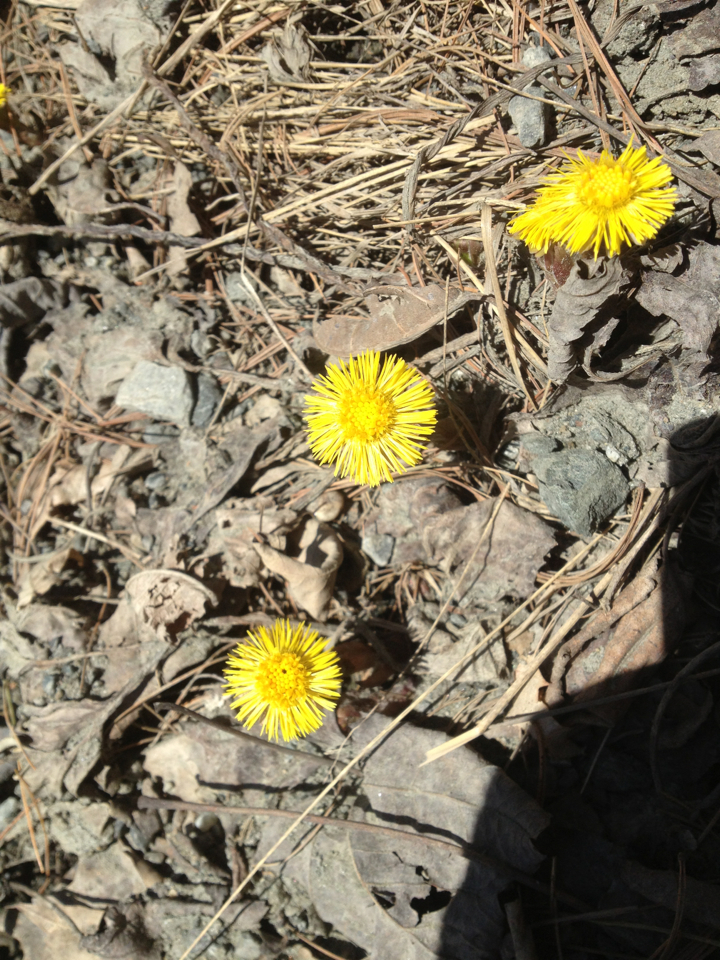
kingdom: Plantae
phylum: Tracheophyta
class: Magnoliopsida
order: Asterales
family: Asteraceae
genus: Tussilago
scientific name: Tussilago farfara
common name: Coltsfoot
